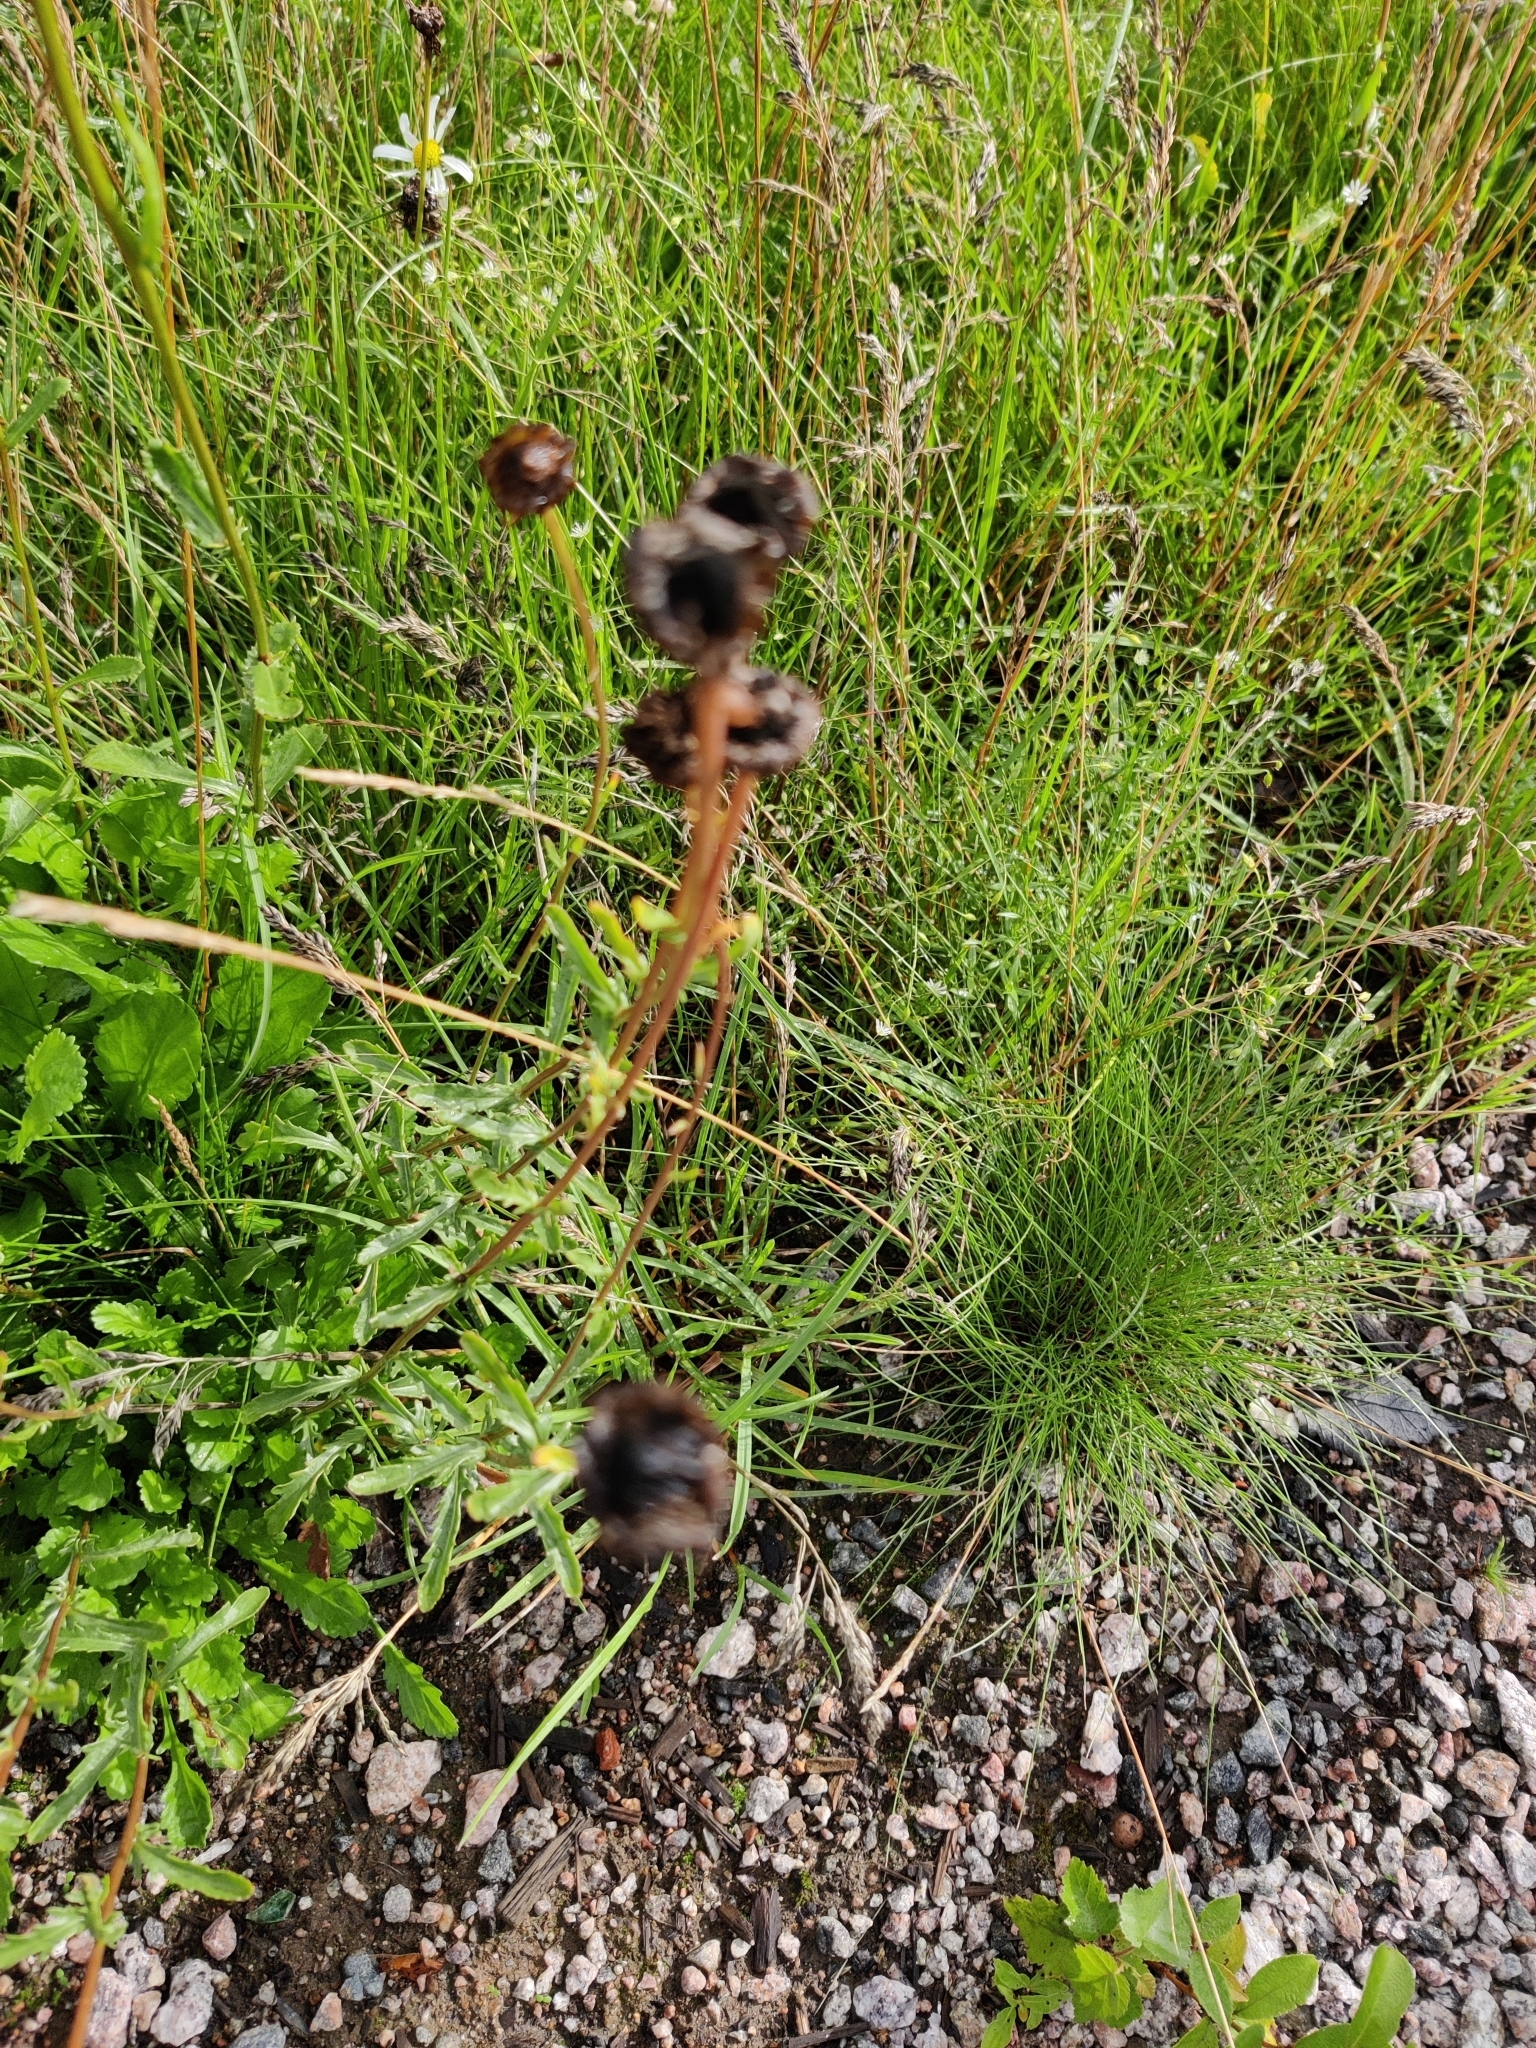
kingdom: Plantae
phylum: Tracheophyta
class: Magnoliopsida
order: Asterales
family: Asteraceae
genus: Leucanthemum
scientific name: Leucanthemum vulgare
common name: Oxeye daisy
